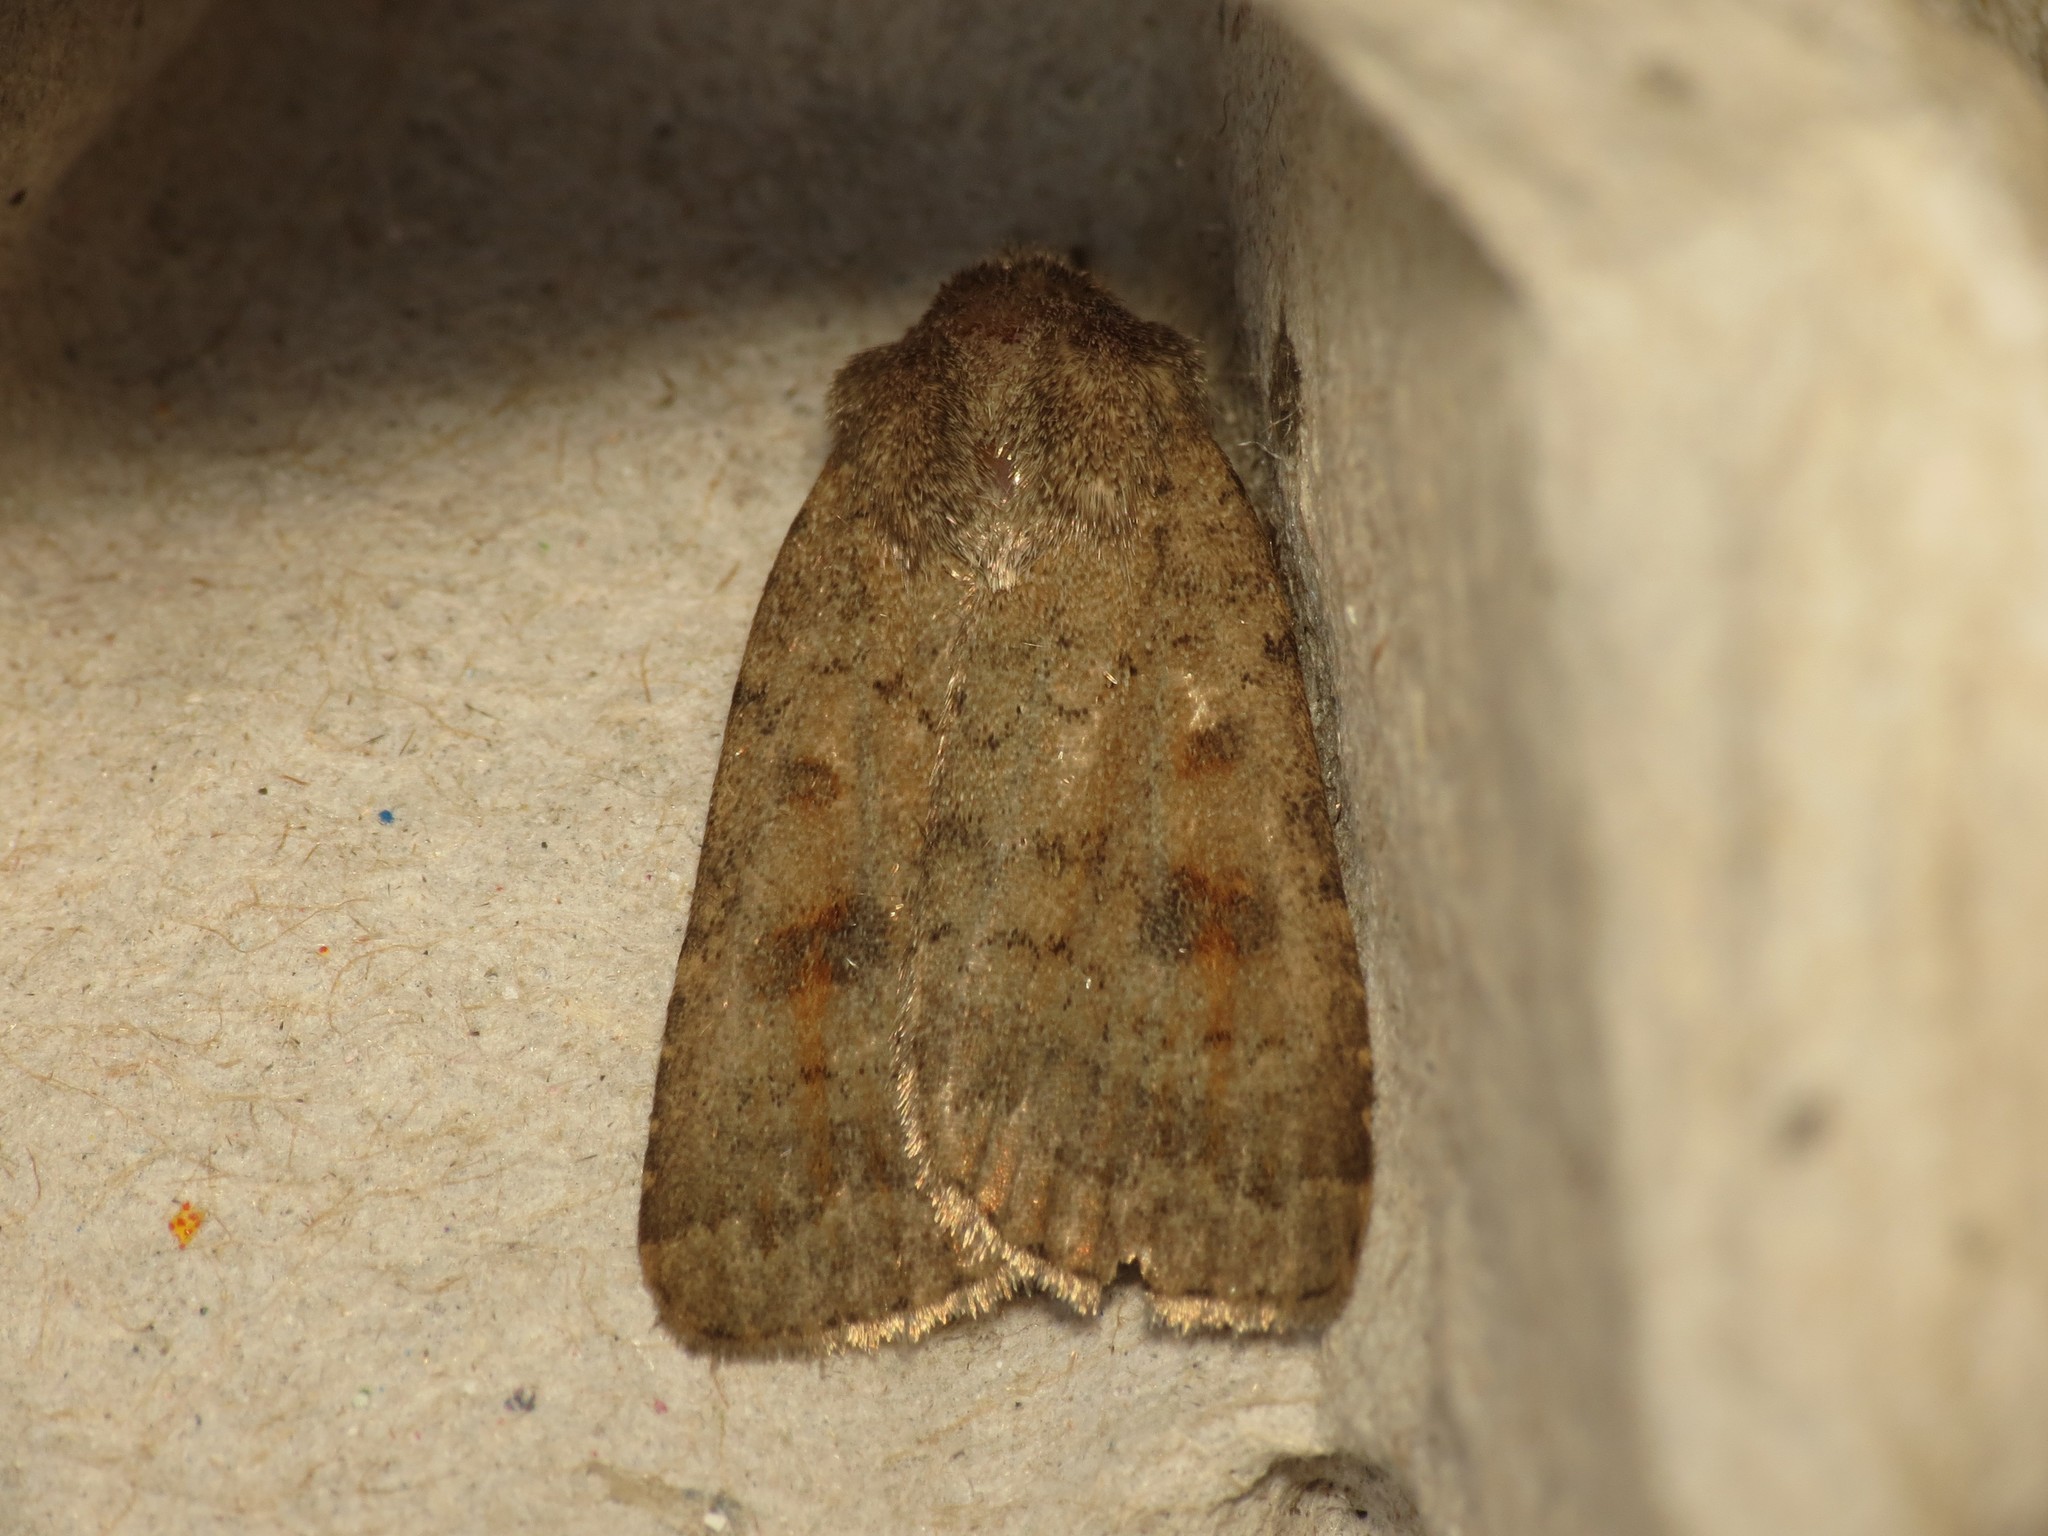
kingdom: Animalia
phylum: Arthropoda
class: Insecta
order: Lepidoptera
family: Noctuidae
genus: Caradrina
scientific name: Caradrina morpheus
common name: Mottled rustic
